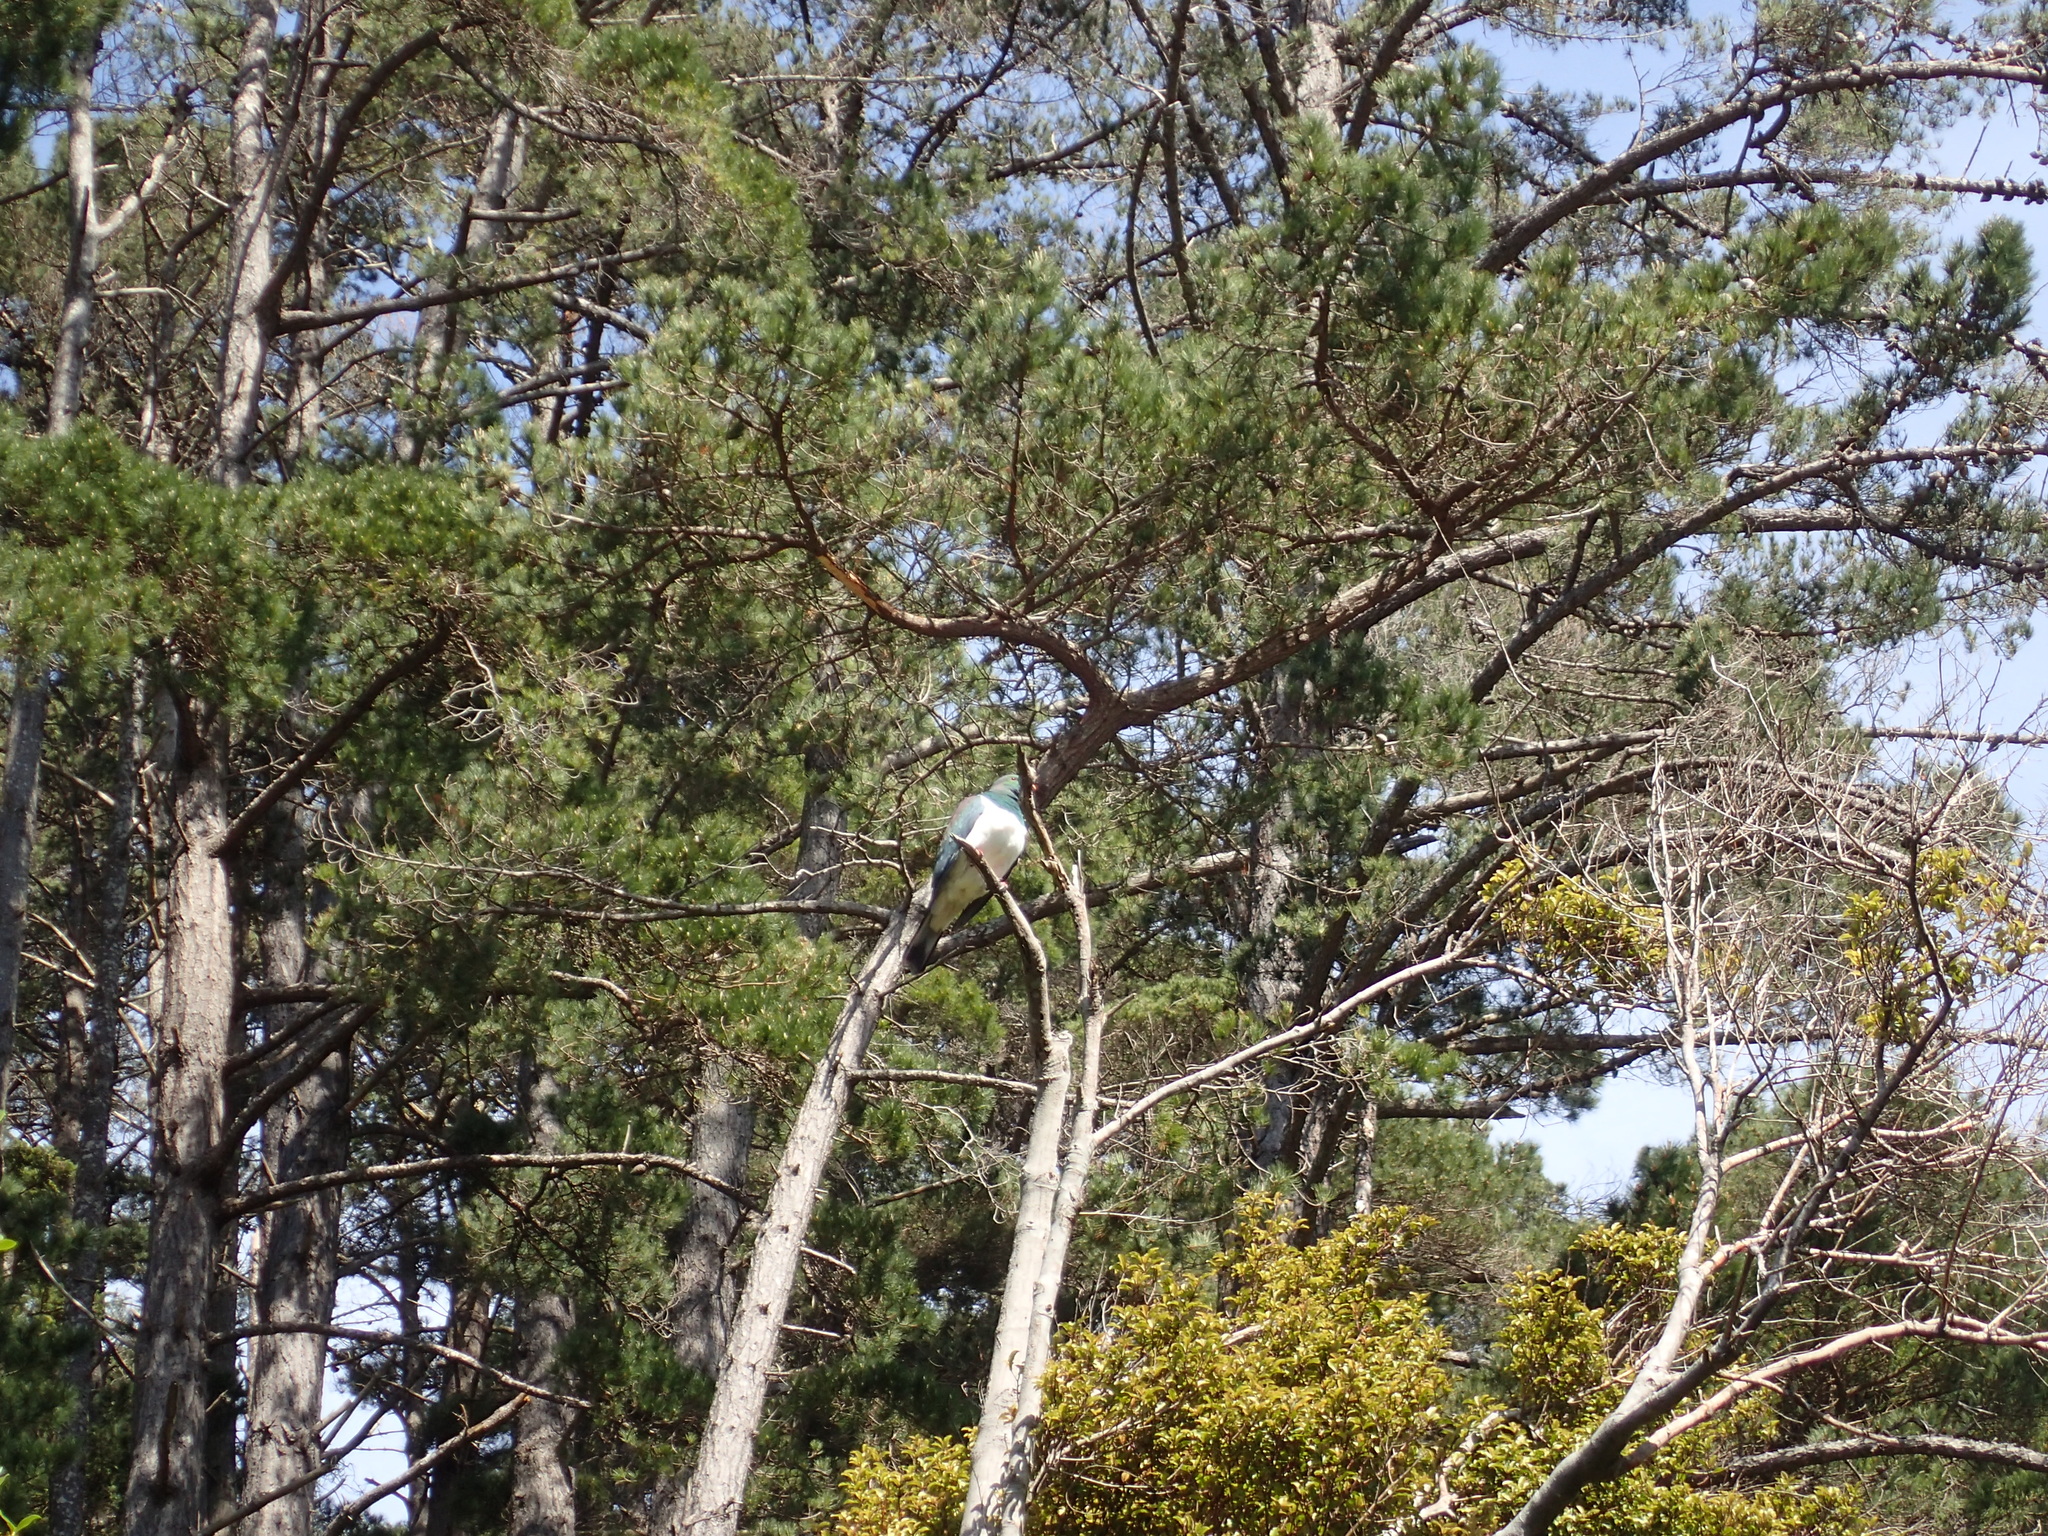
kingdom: Animalia
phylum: Chordata
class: Aves
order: Columbiformes
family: Columbidae
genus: Hemiphaga
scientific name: Hemiphaga novaeseelandiae
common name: New zealand pigeon
